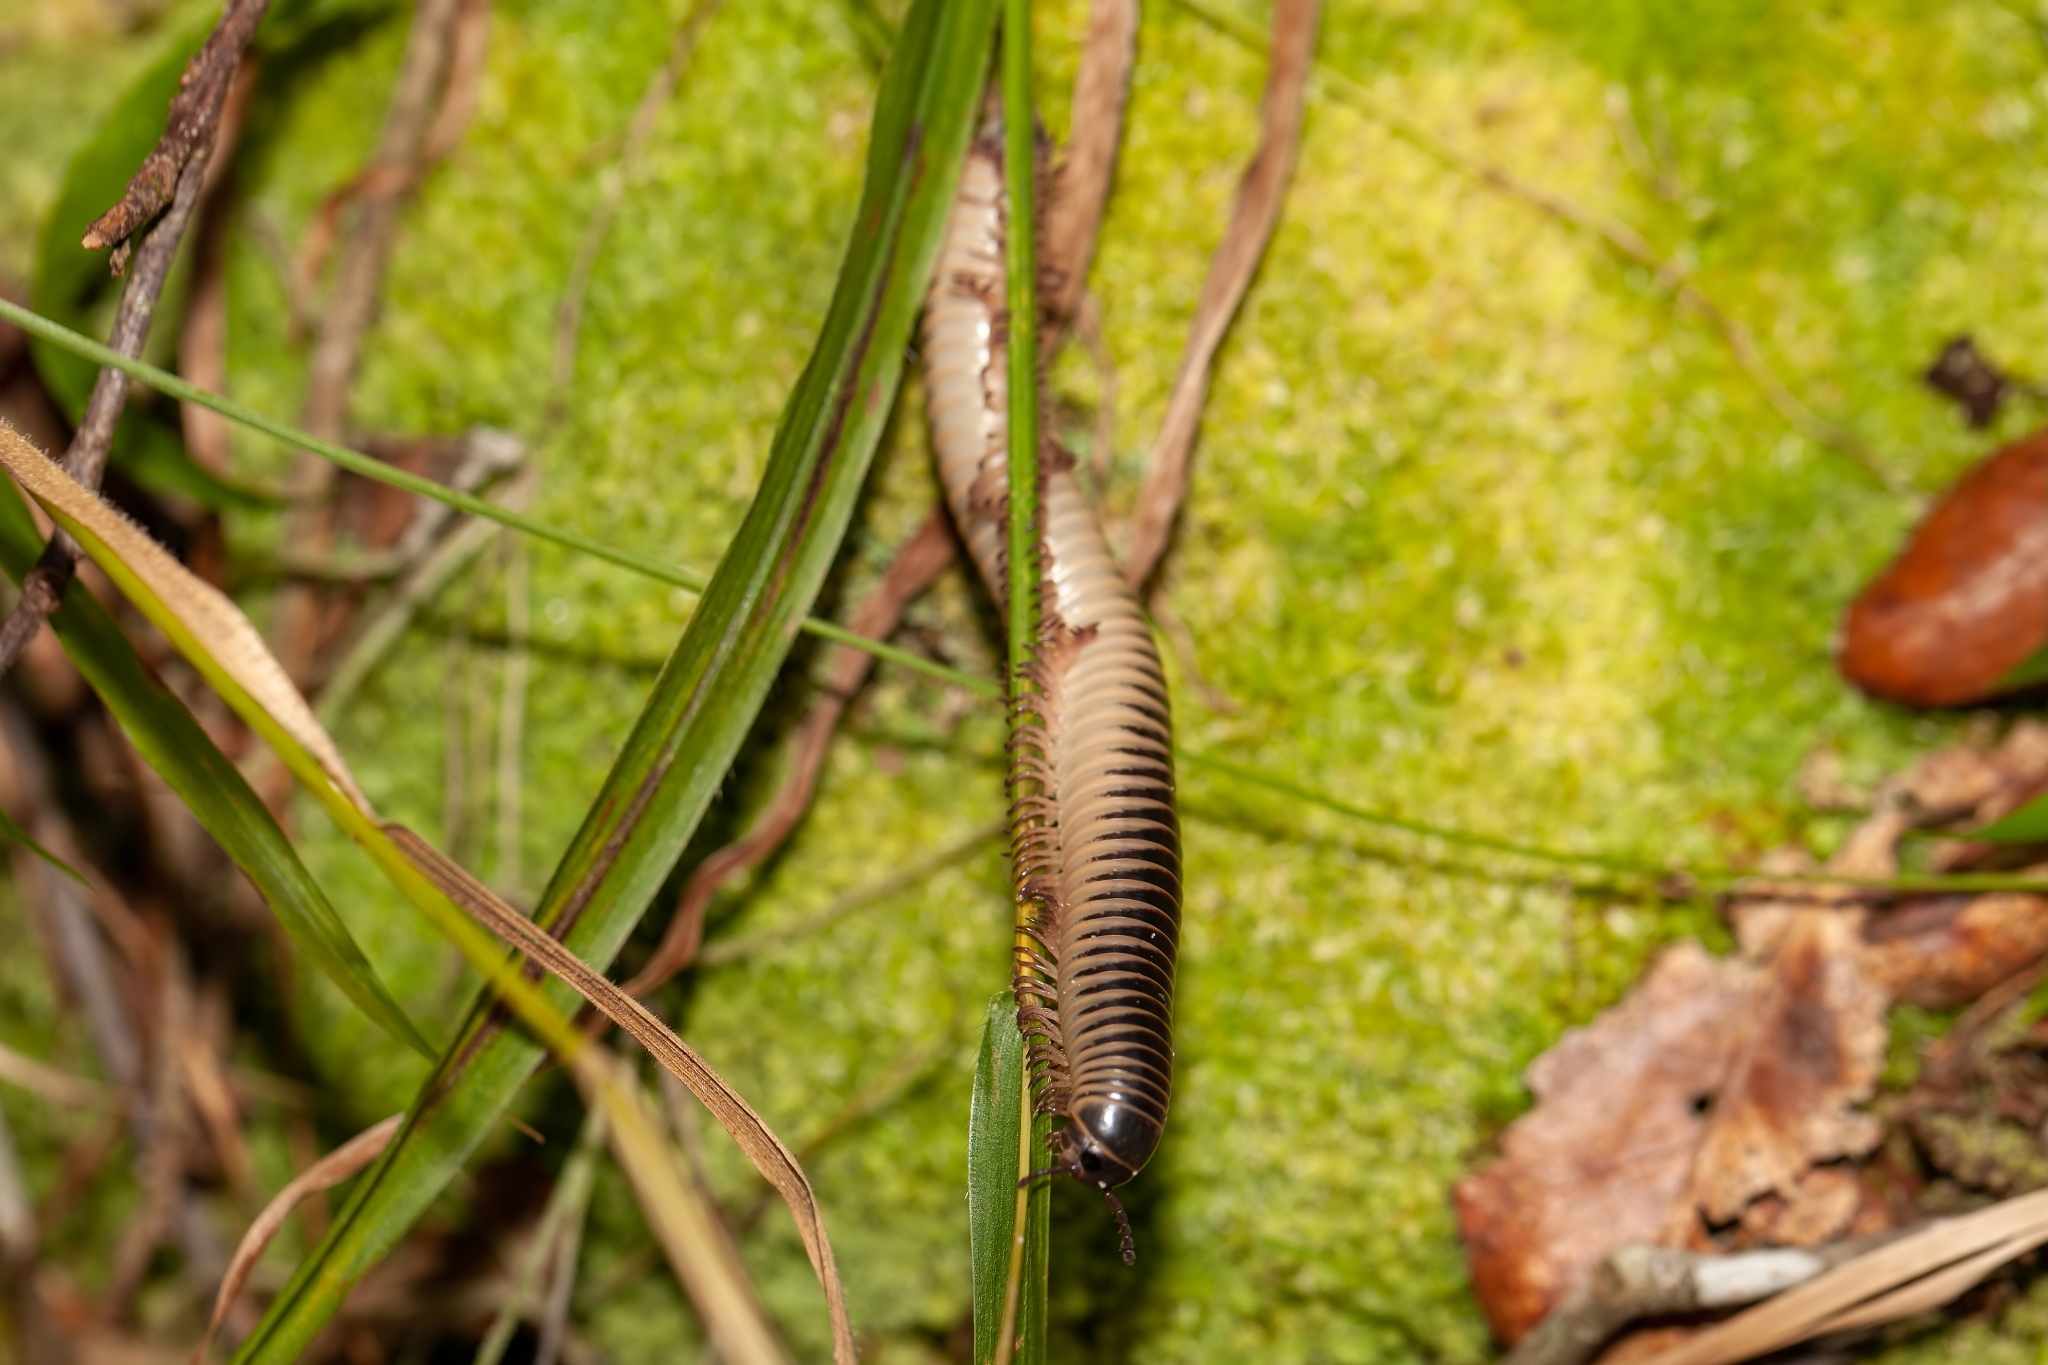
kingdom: Animalia
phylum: Arthropoda
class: Diplopoda
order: Spirobolida
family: Spirobolidae
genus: Chicobolus
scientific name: Chicobolus spinigerus
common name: Florida ivory millipede
